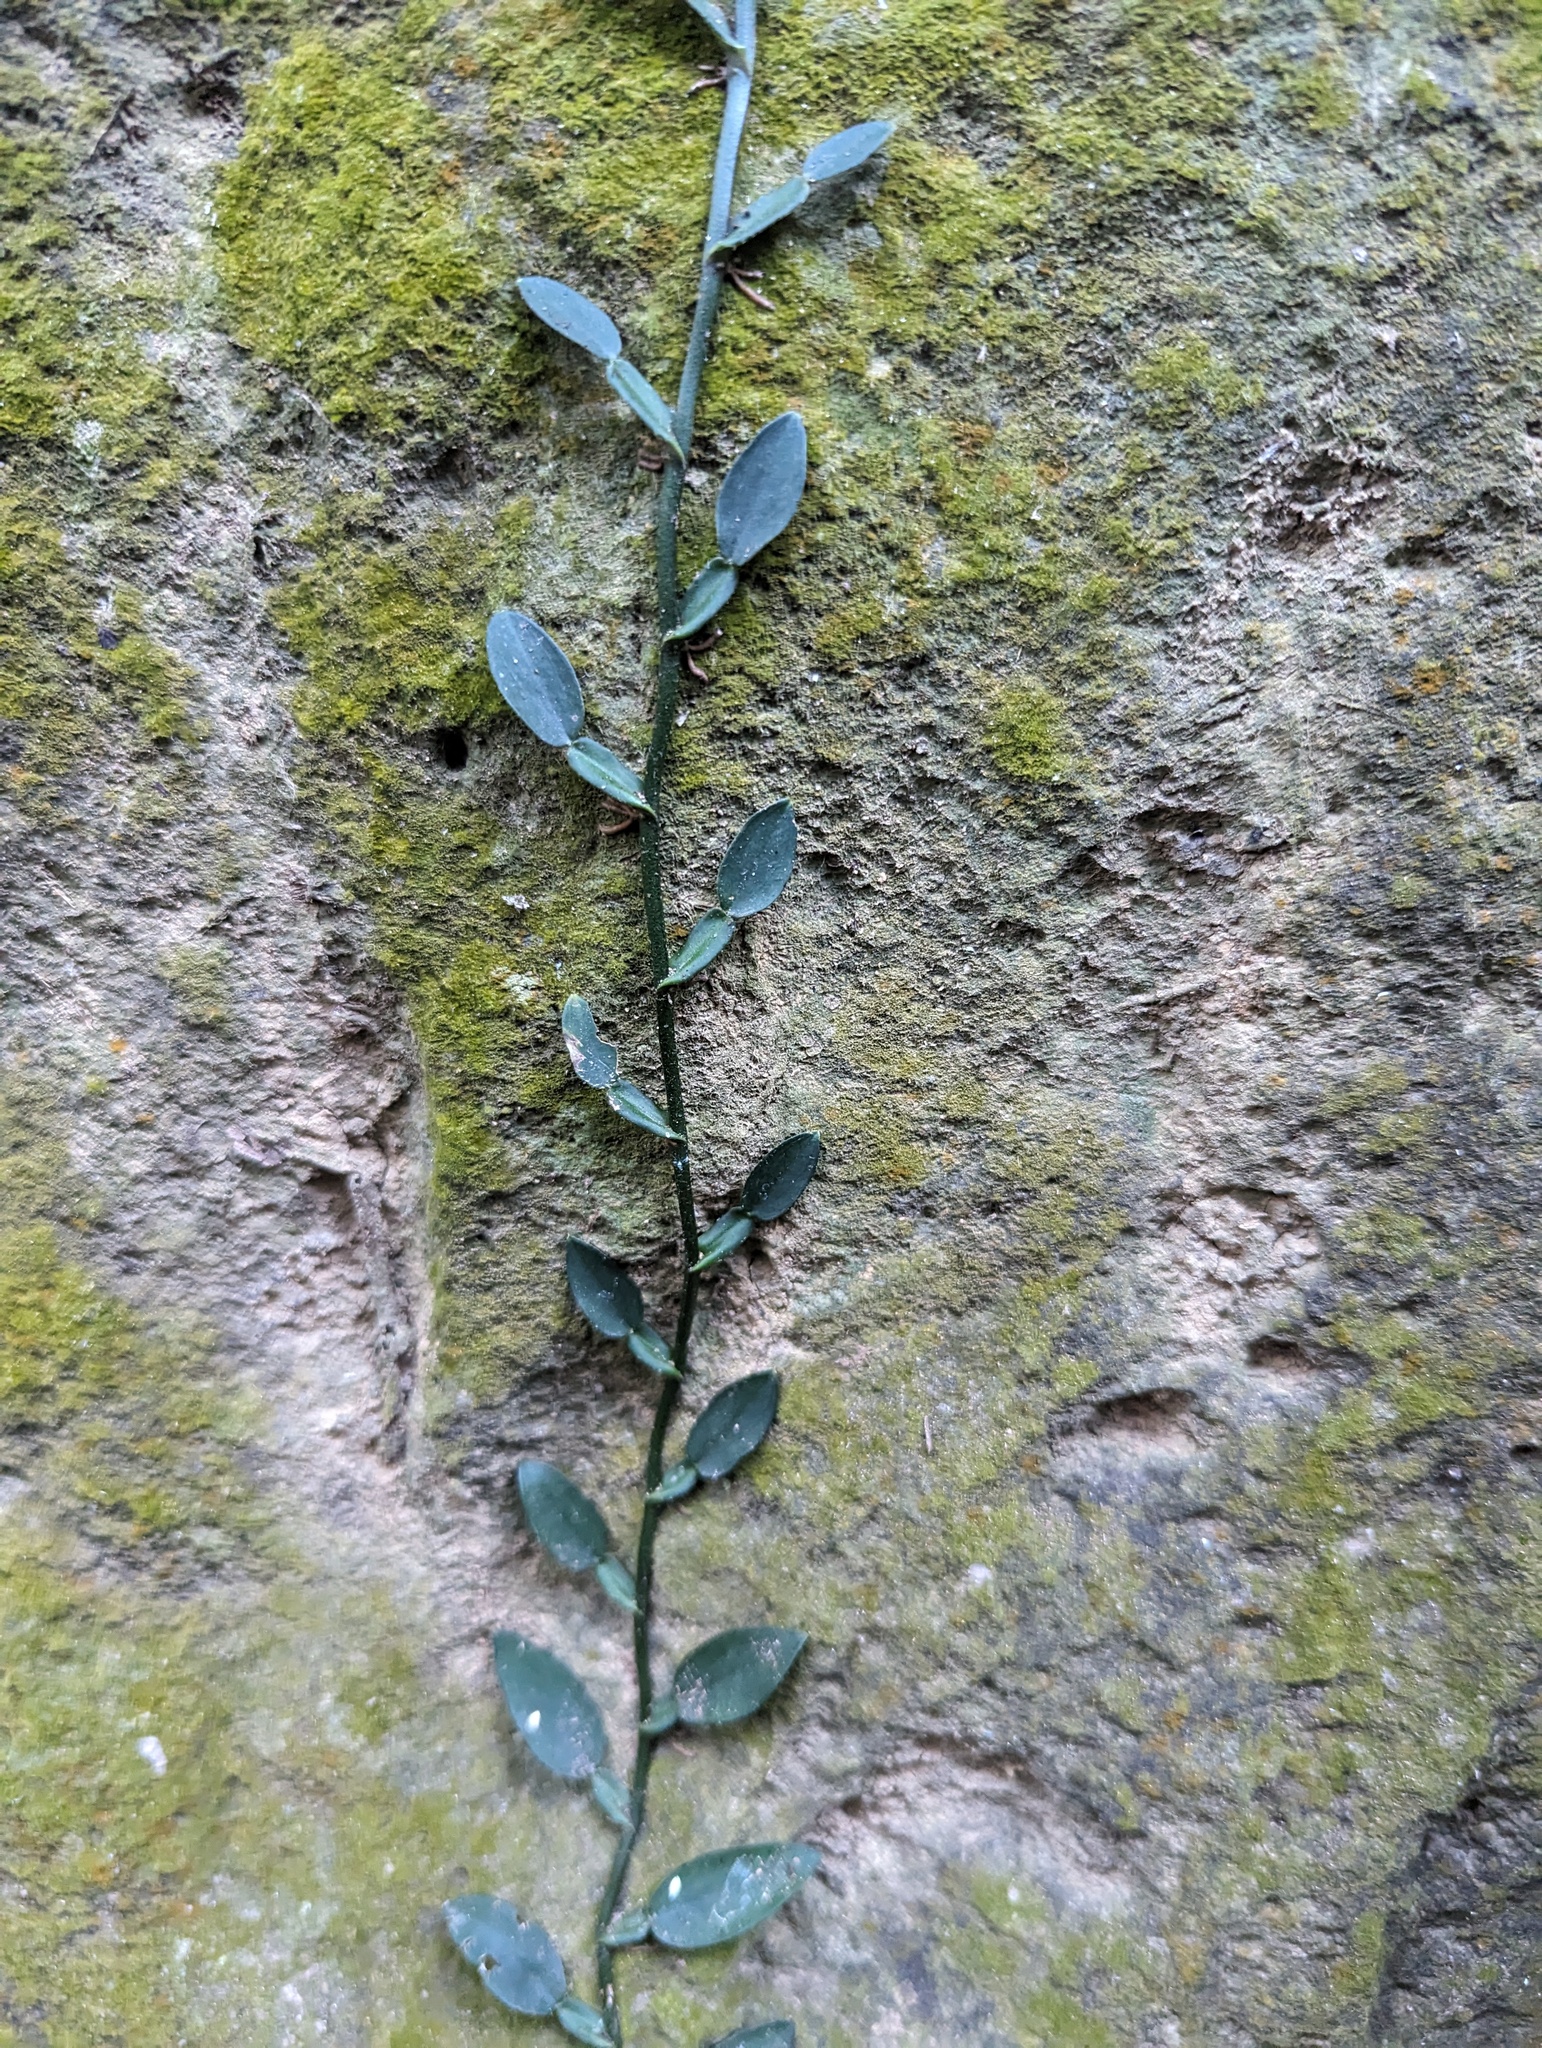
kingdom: Plantae
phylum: Tracheophyta
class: Liliopsida
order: Alismatales
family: Araceae
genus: Pothos
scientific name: Pothos chinensis
